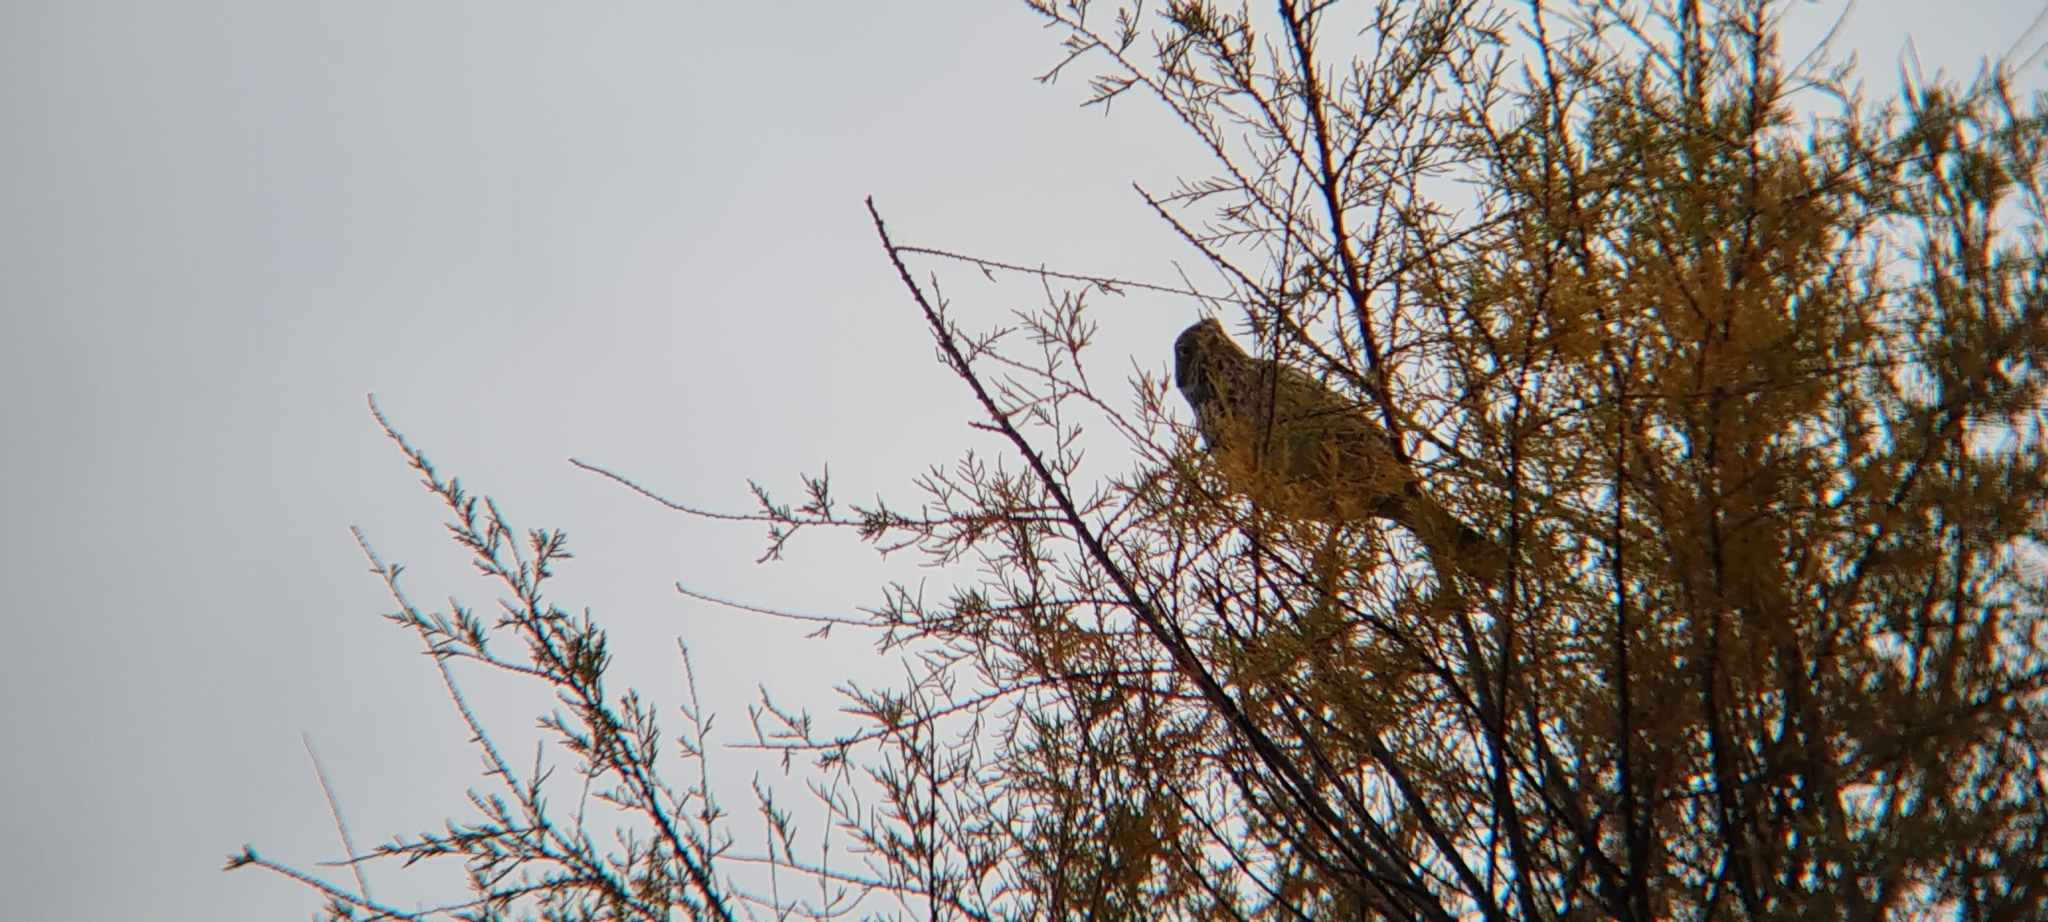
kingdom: Animalia
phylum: Chordata
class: Aves
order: Passeriformes
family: Emberizidae
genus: Emberiza
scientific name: Emberiza calandra
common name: Corn bunting
